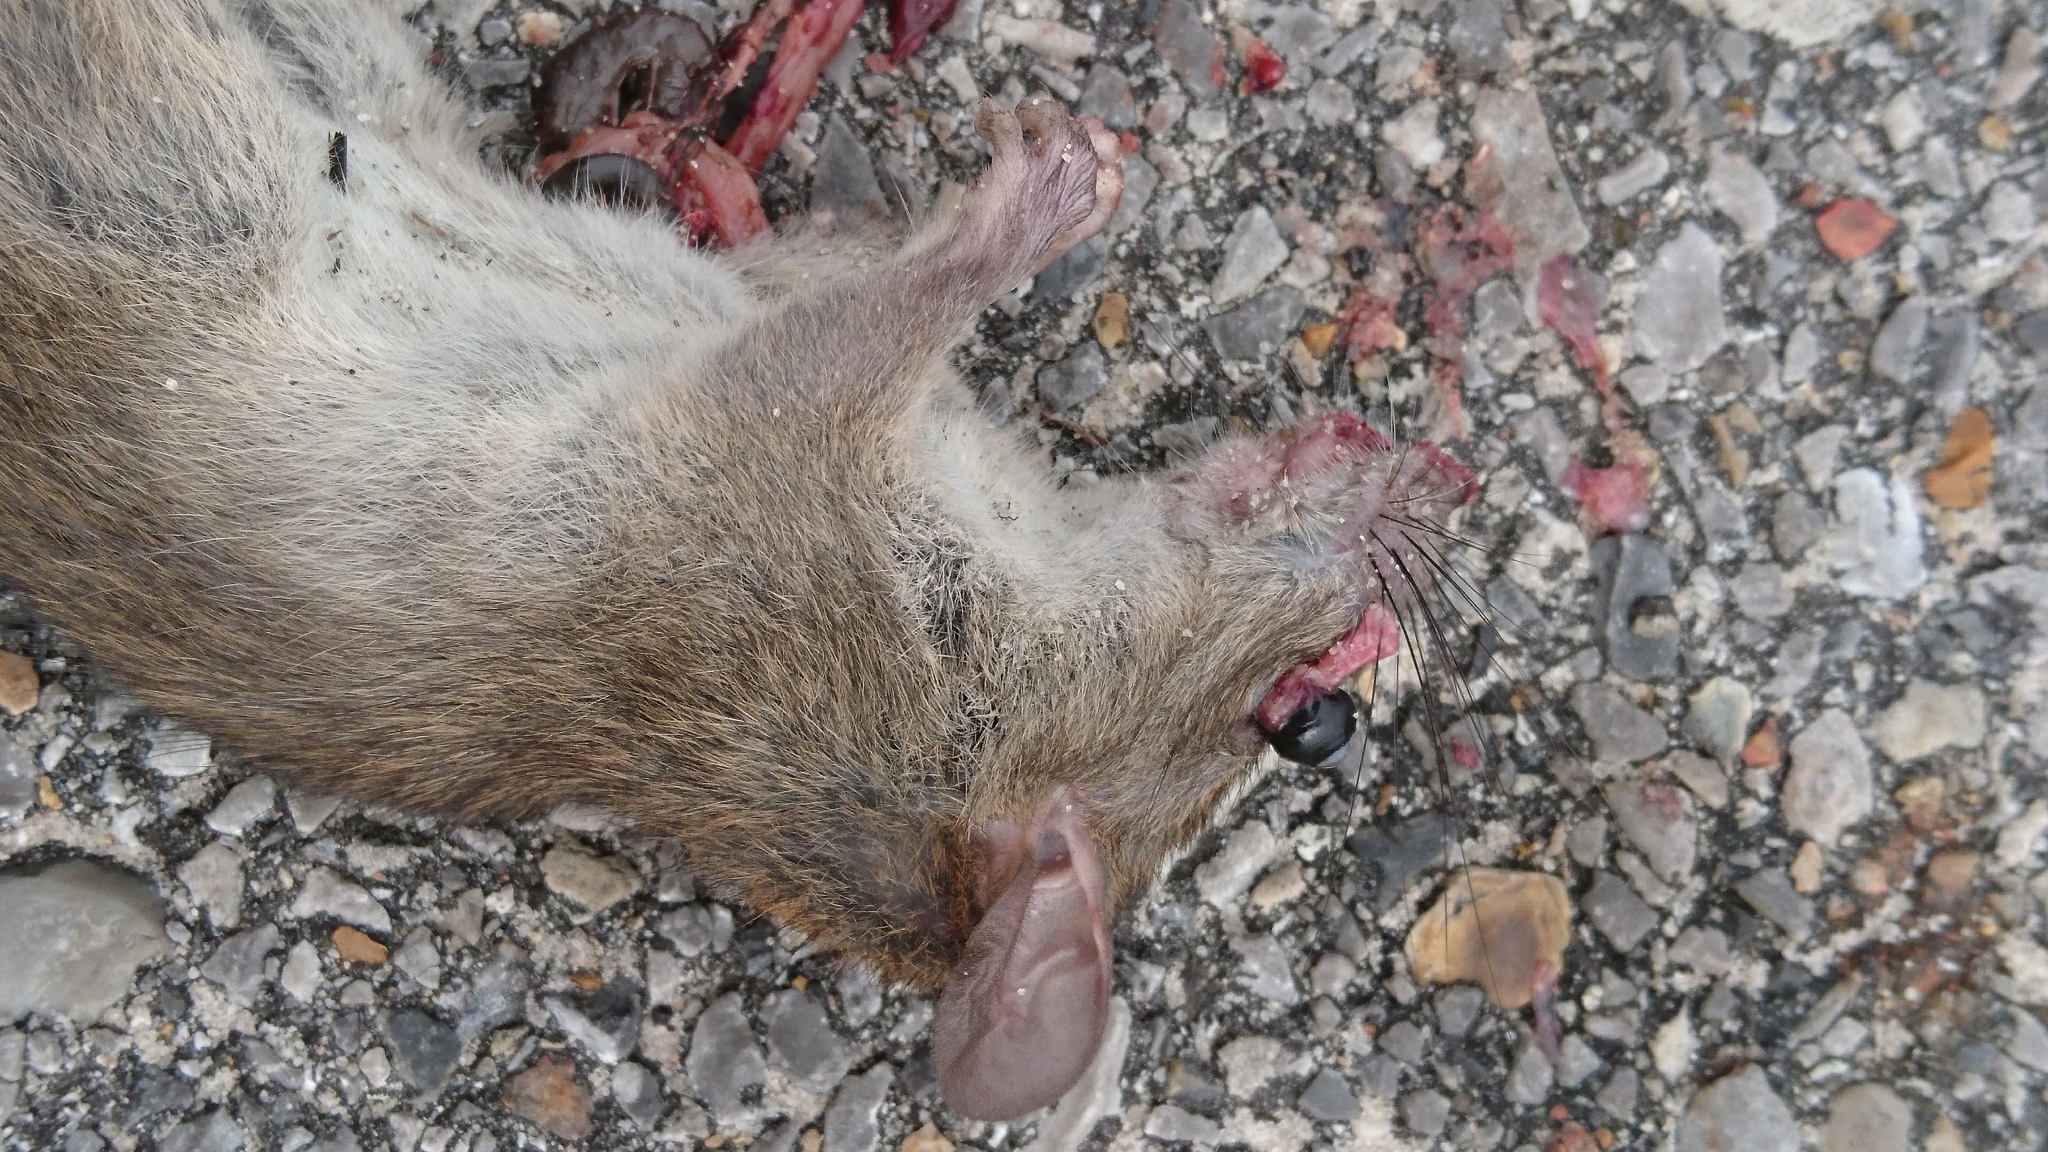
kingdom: Animalia
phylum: Chordata
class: Mammalia
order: Rodentia
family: Muridae
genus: Rattus
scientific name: Rattus rattus
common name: Black rat
